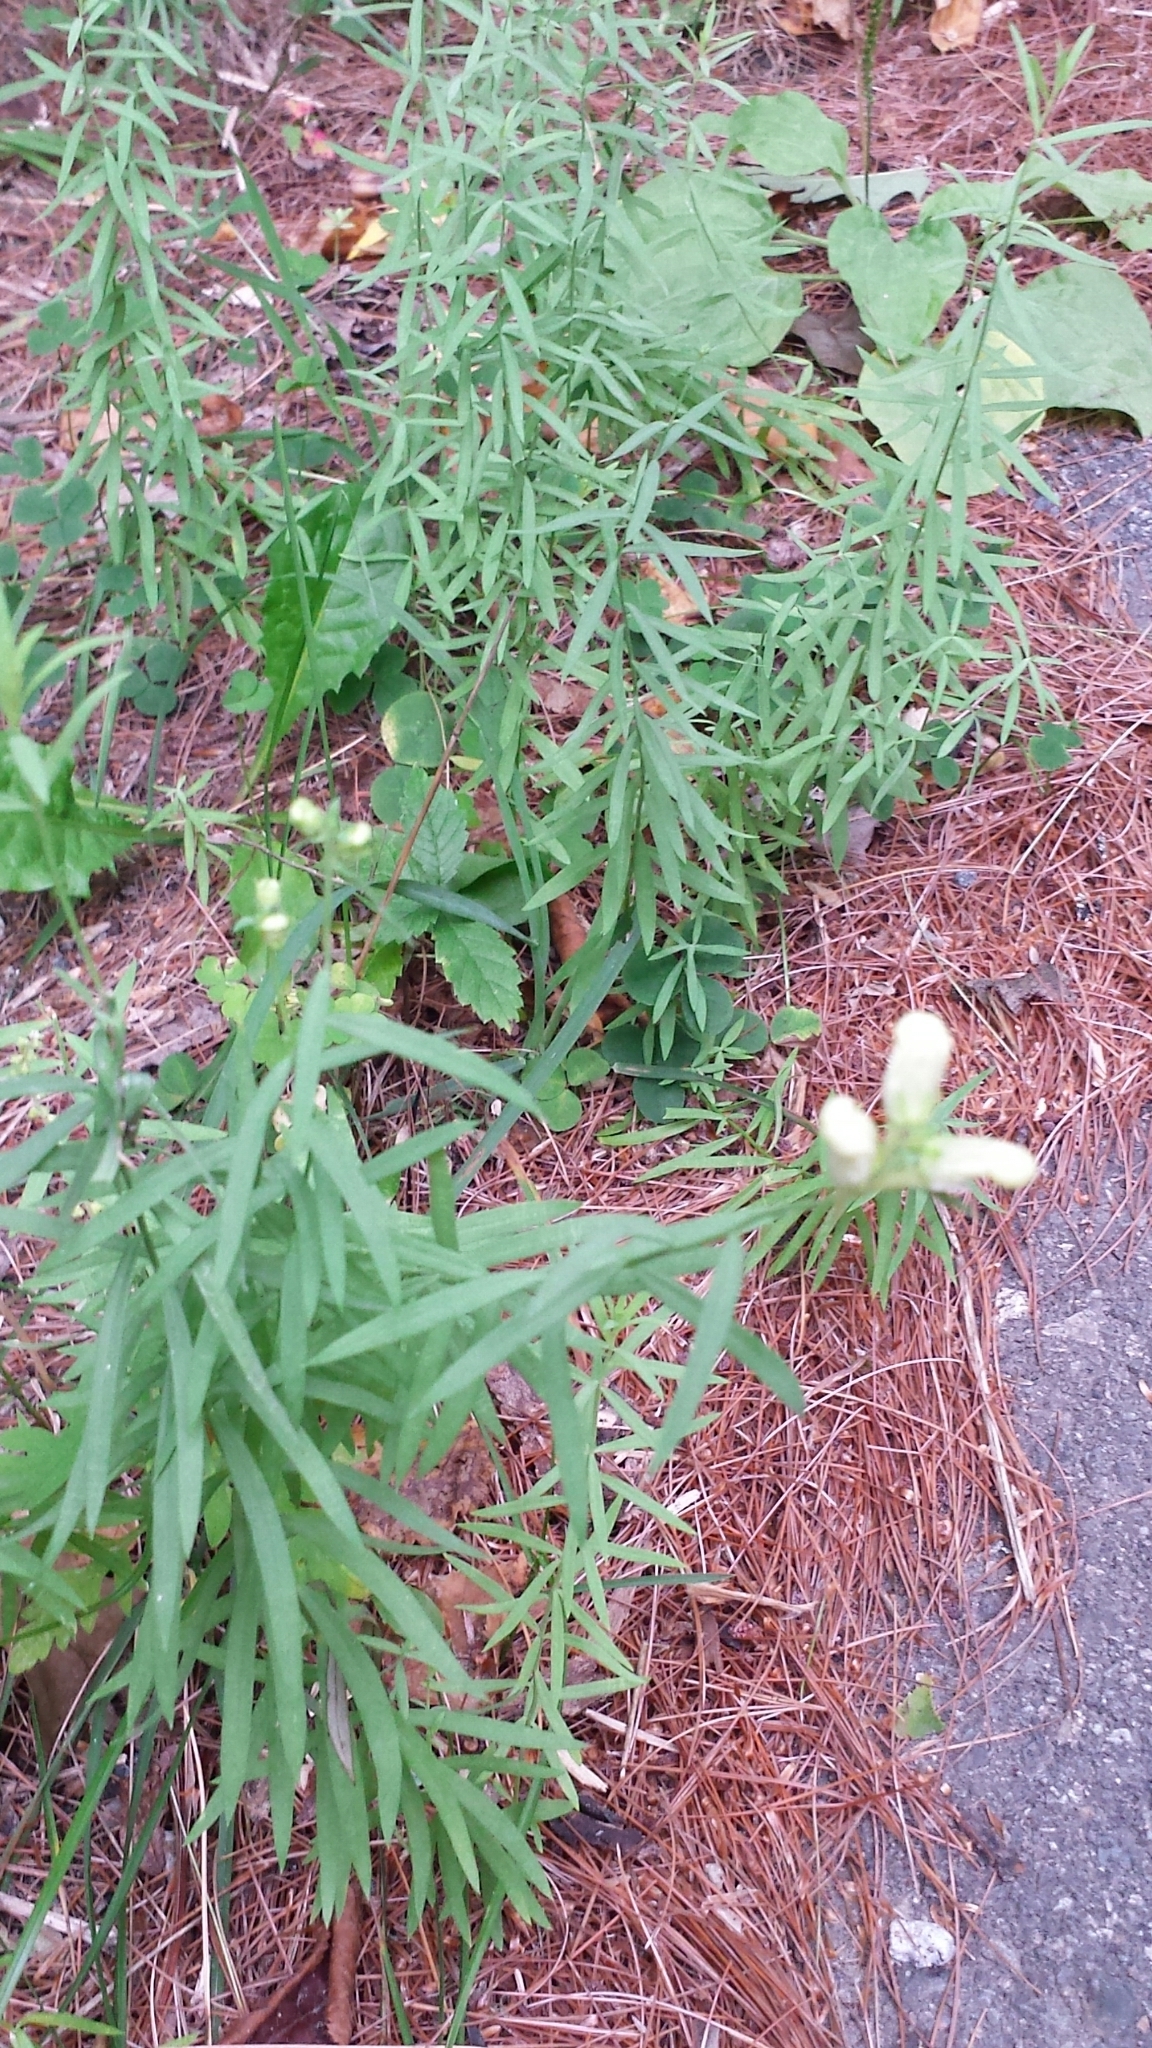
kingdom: Plantae
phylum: Tracheophyta
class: Magnoliopsida
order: Lamiales
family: Plantaginaceae
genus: Linaria
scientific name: Linaria vulgaris
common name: Butter and eggs
